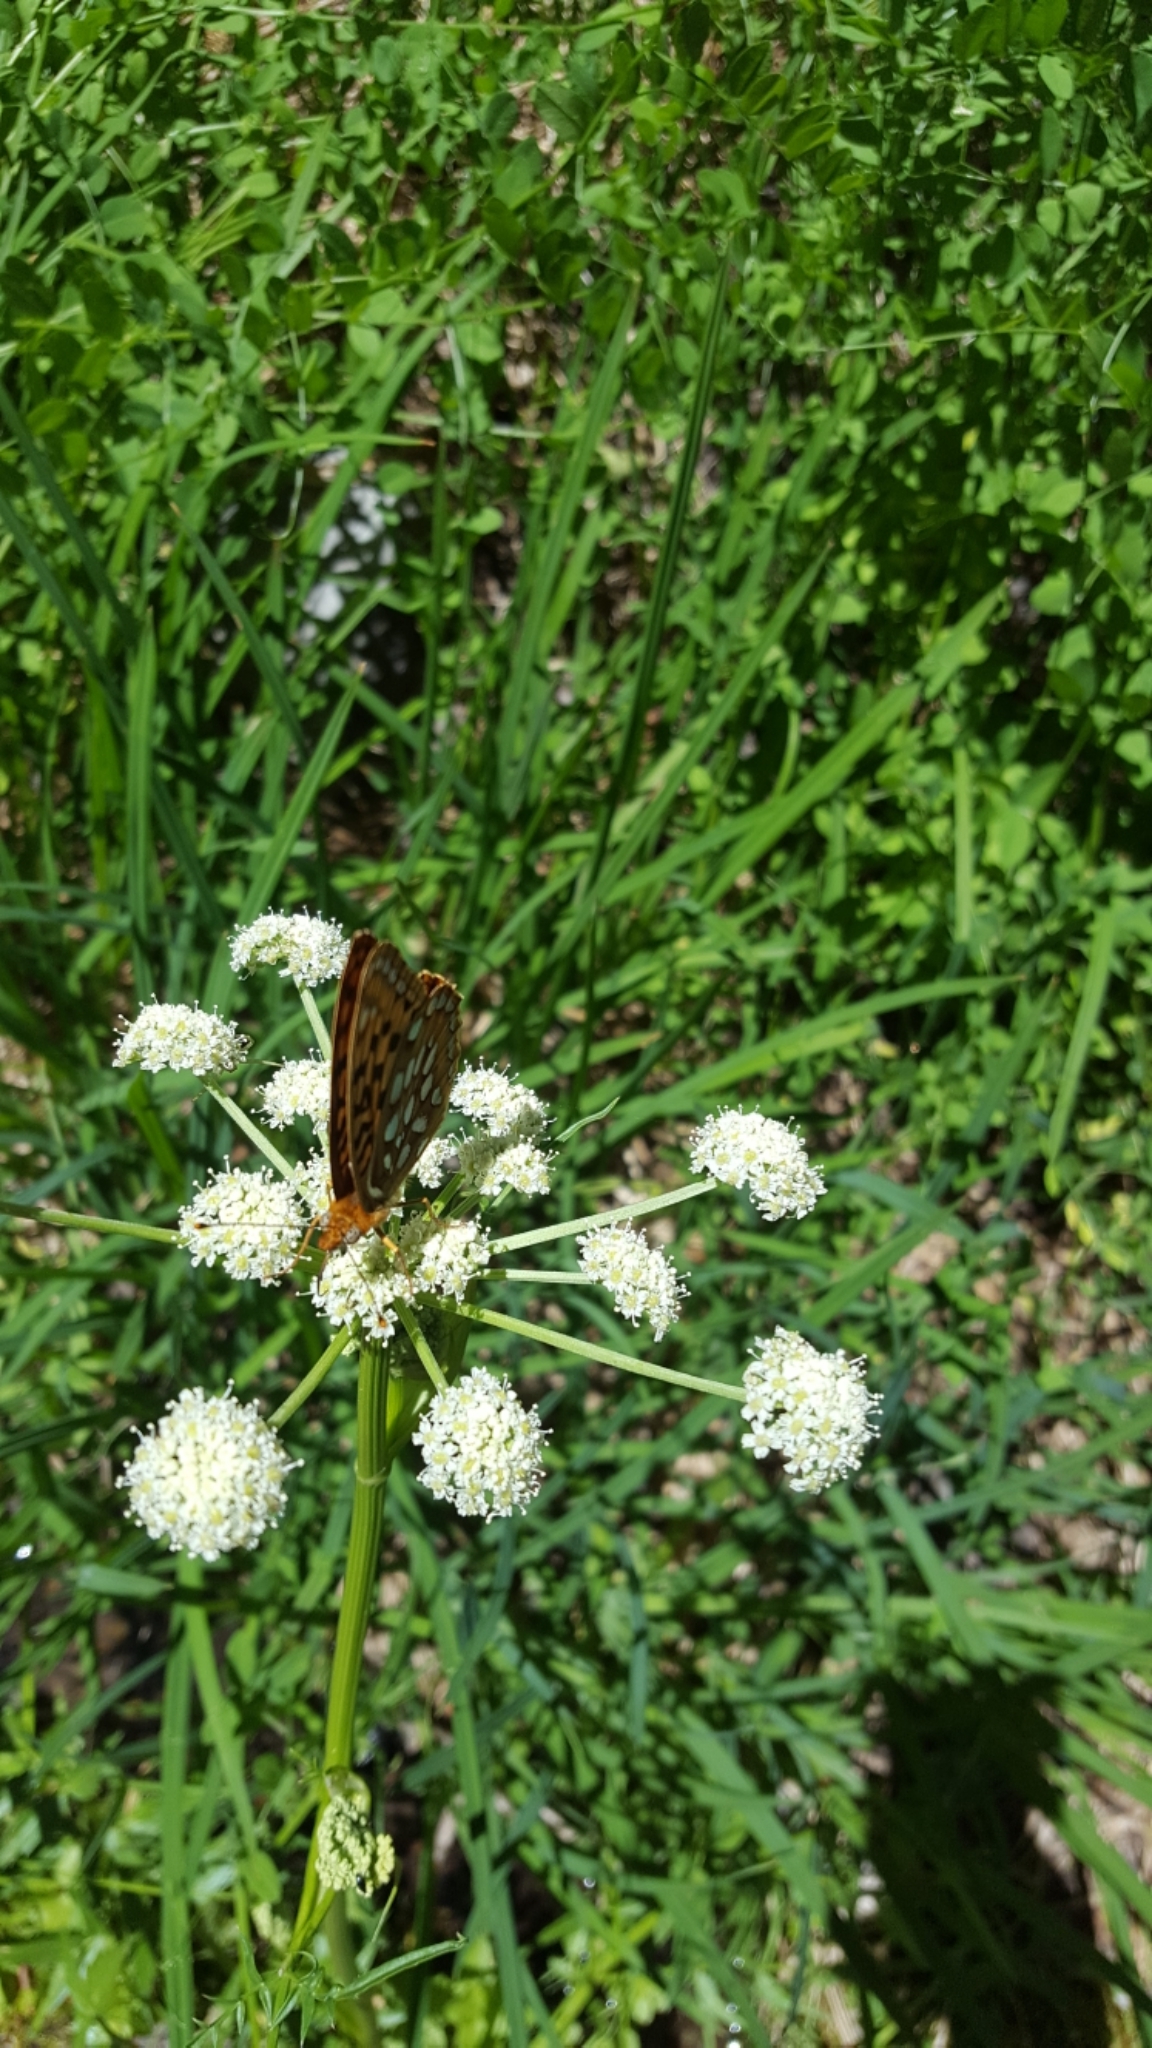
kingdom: Animalia
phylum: Arthropoda
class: Insecta
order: Lepidoptera
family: Nymphalidae
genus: Speyeria
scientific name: Speyeria callippe
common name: Callippe fritillary
